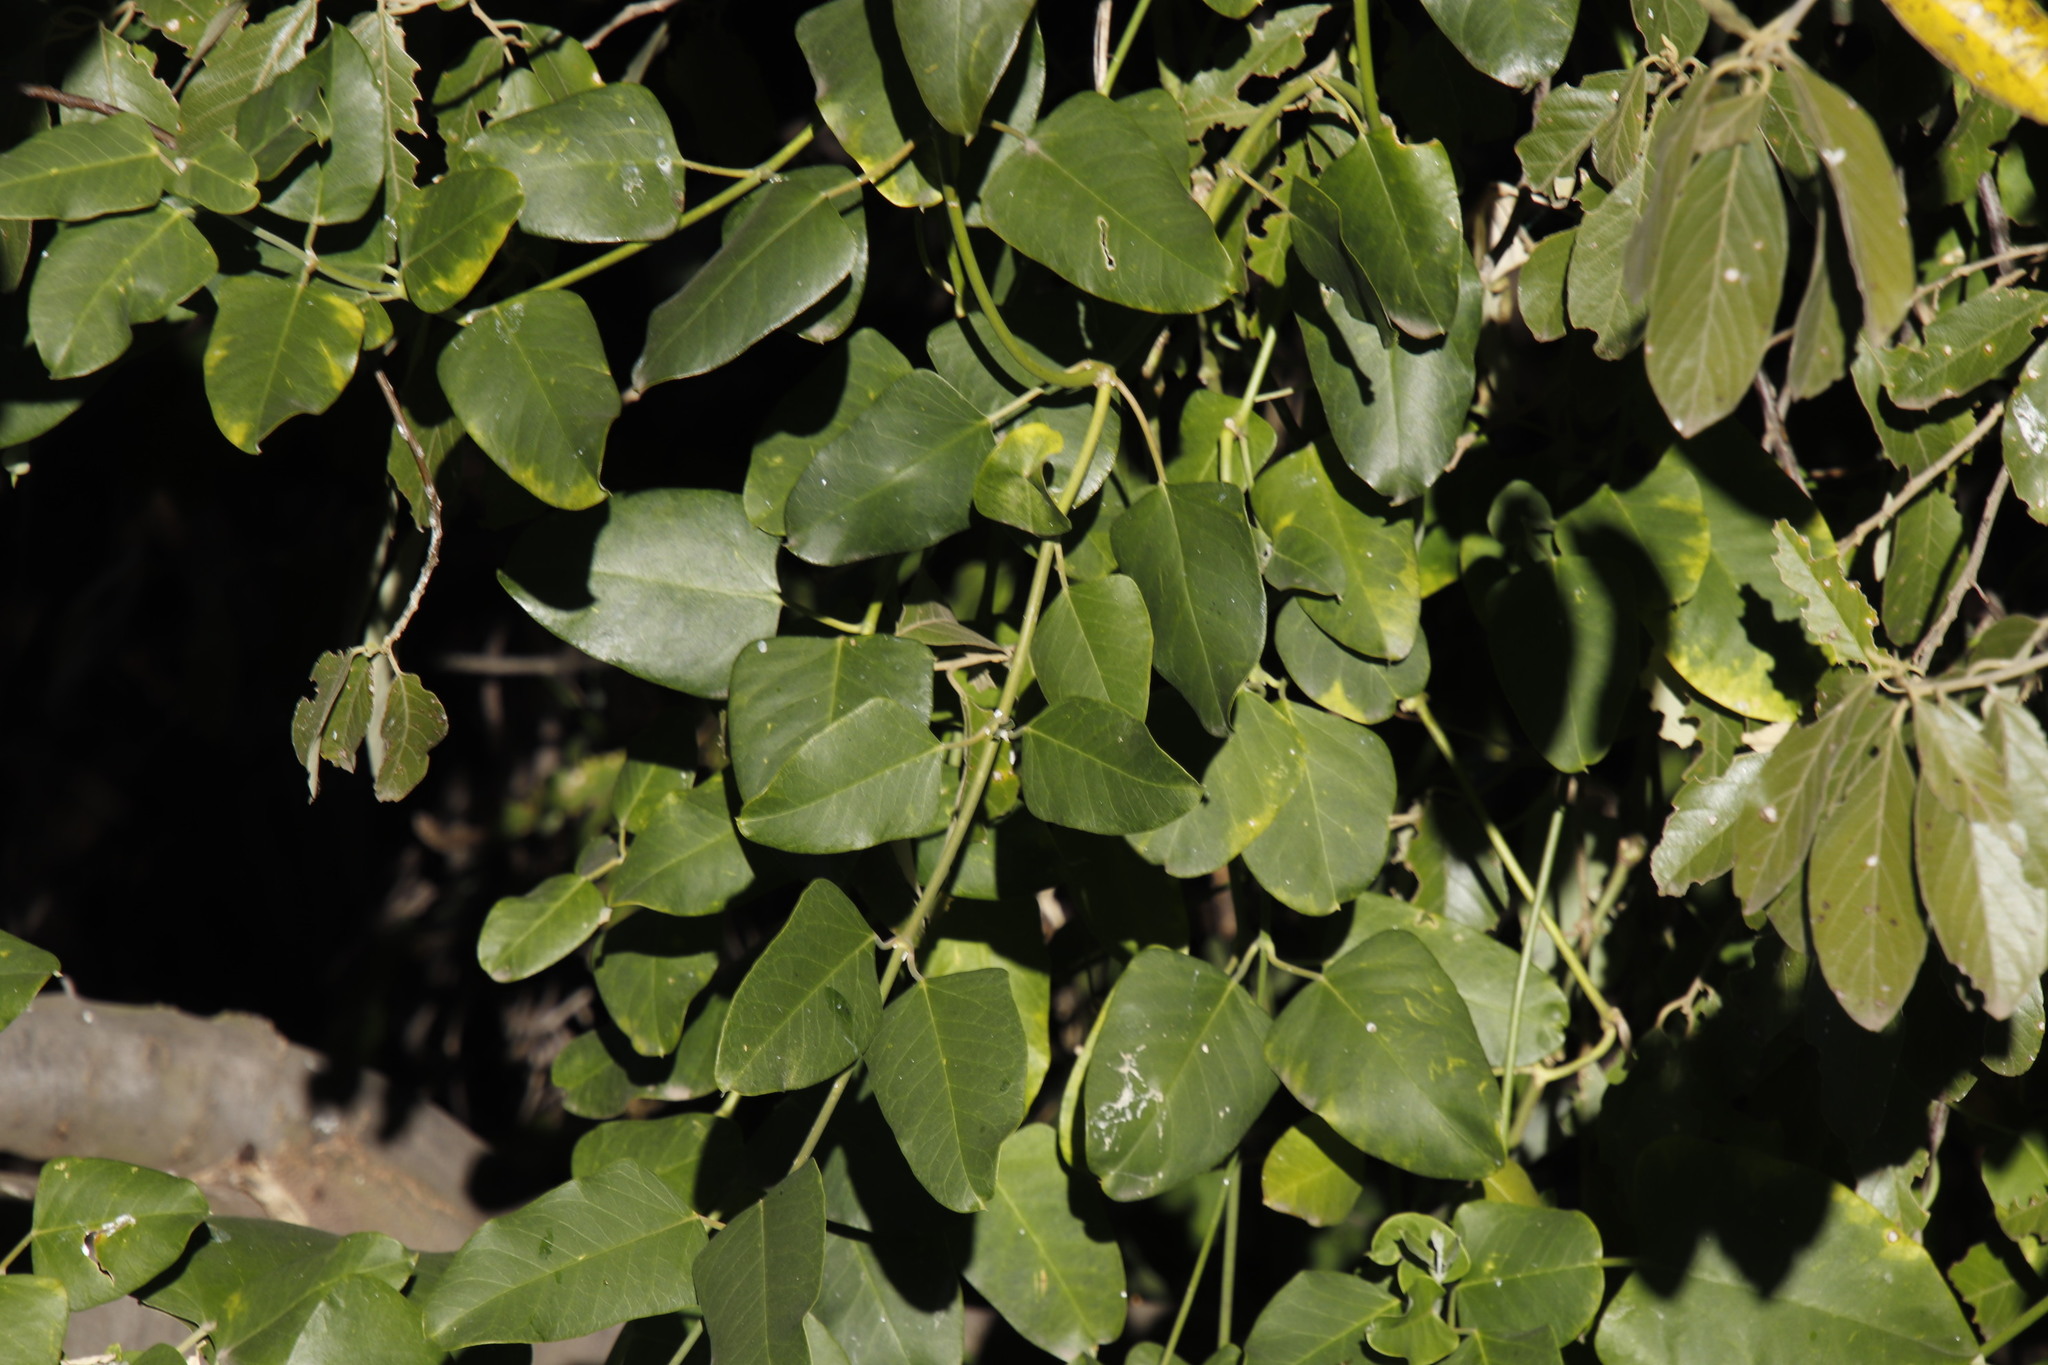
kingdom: Plantae
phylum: Tracheophyta
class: Magnoliopsida
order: Gentianales
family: Apocynaceae
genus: Araujia
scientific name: Araujia sericifera
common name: White bladderflower
